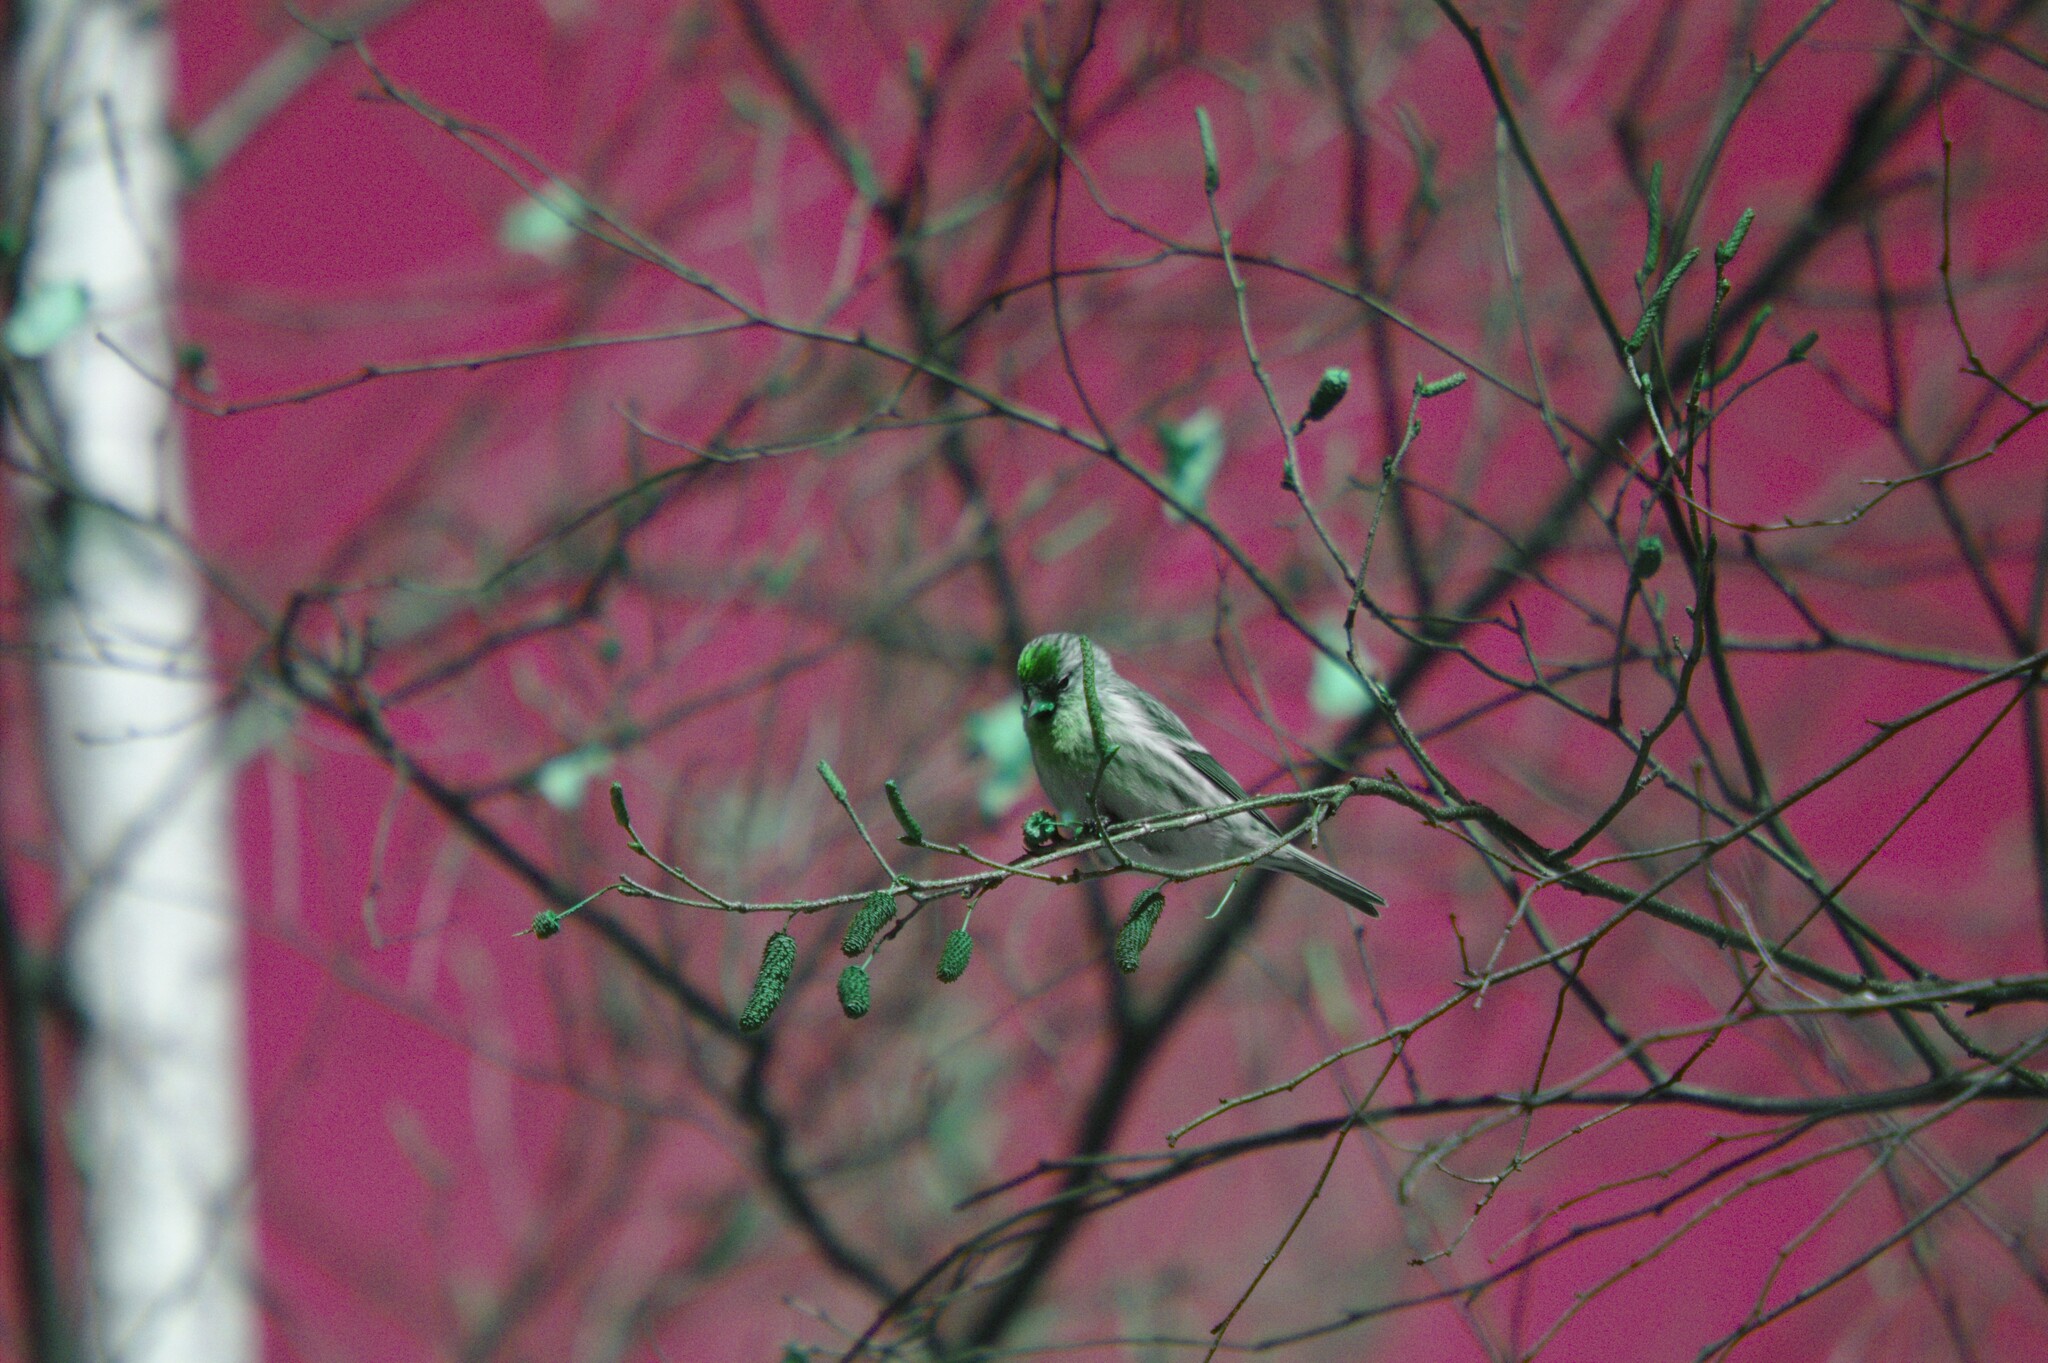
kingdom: Animalia
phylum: Chordata
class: Aves
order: Passeriformes
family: Fringillidae
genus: Acanthis
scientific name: Acanthis flammea
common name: Common redpoll
